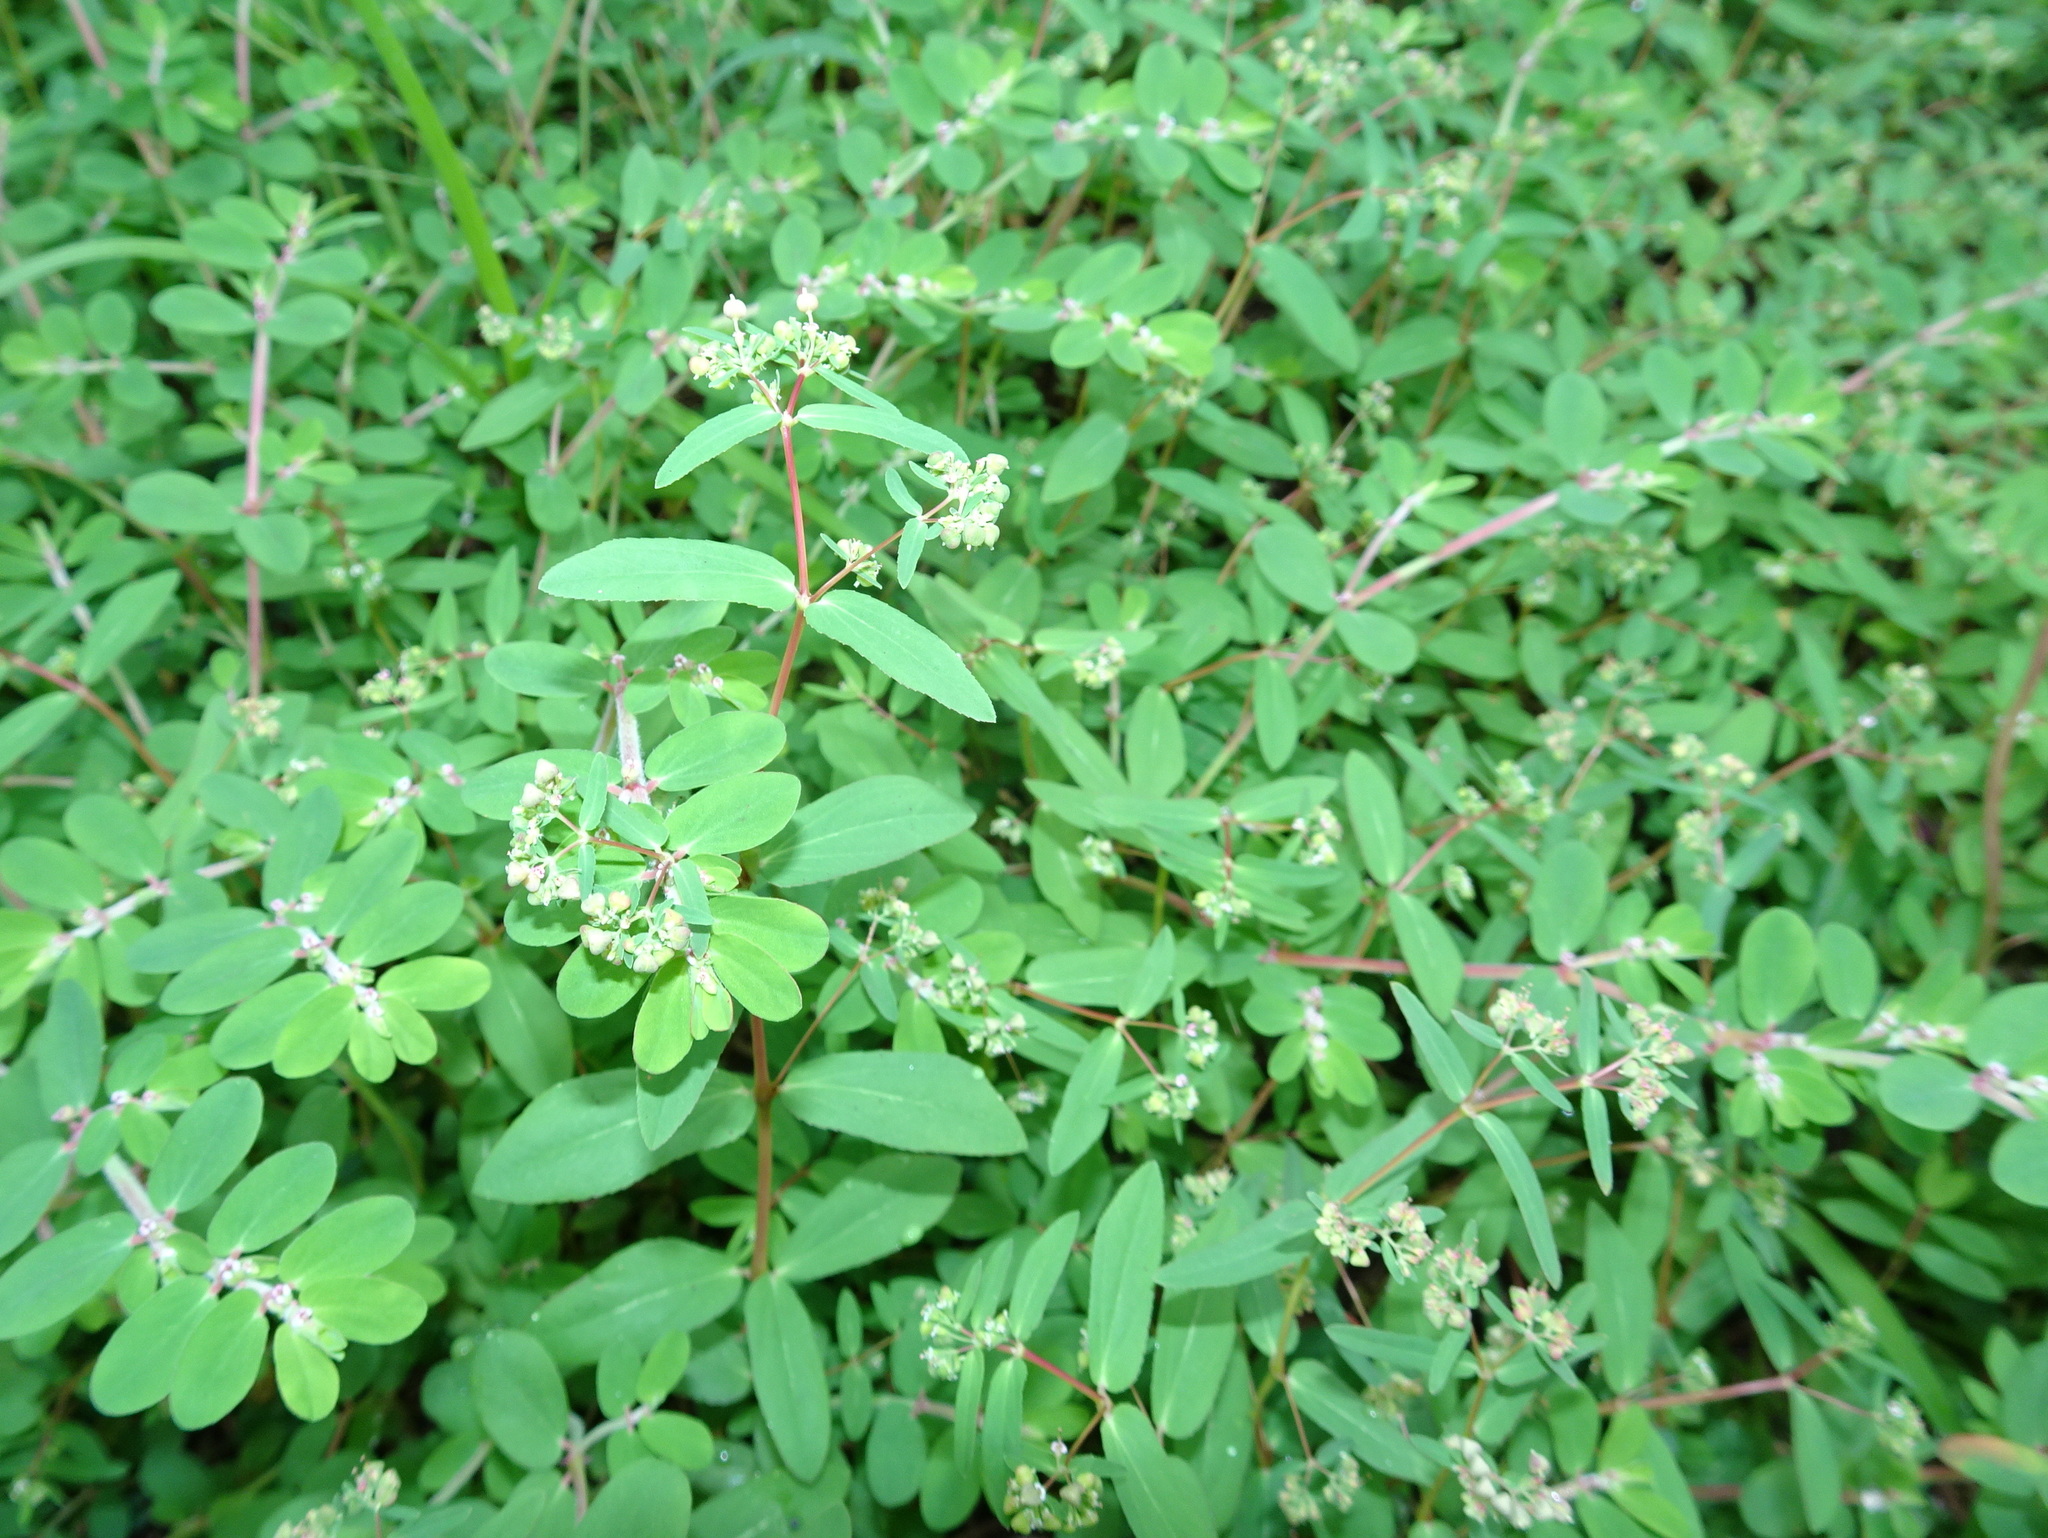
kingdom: Plantae
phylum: Tracheophyta
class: Magnoliopsida
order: Malpighiales
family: Euphorbiaceae
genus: Euphorbia
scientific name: Euphorbia hyssopifolia
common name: Hyssopleaf sandmat
